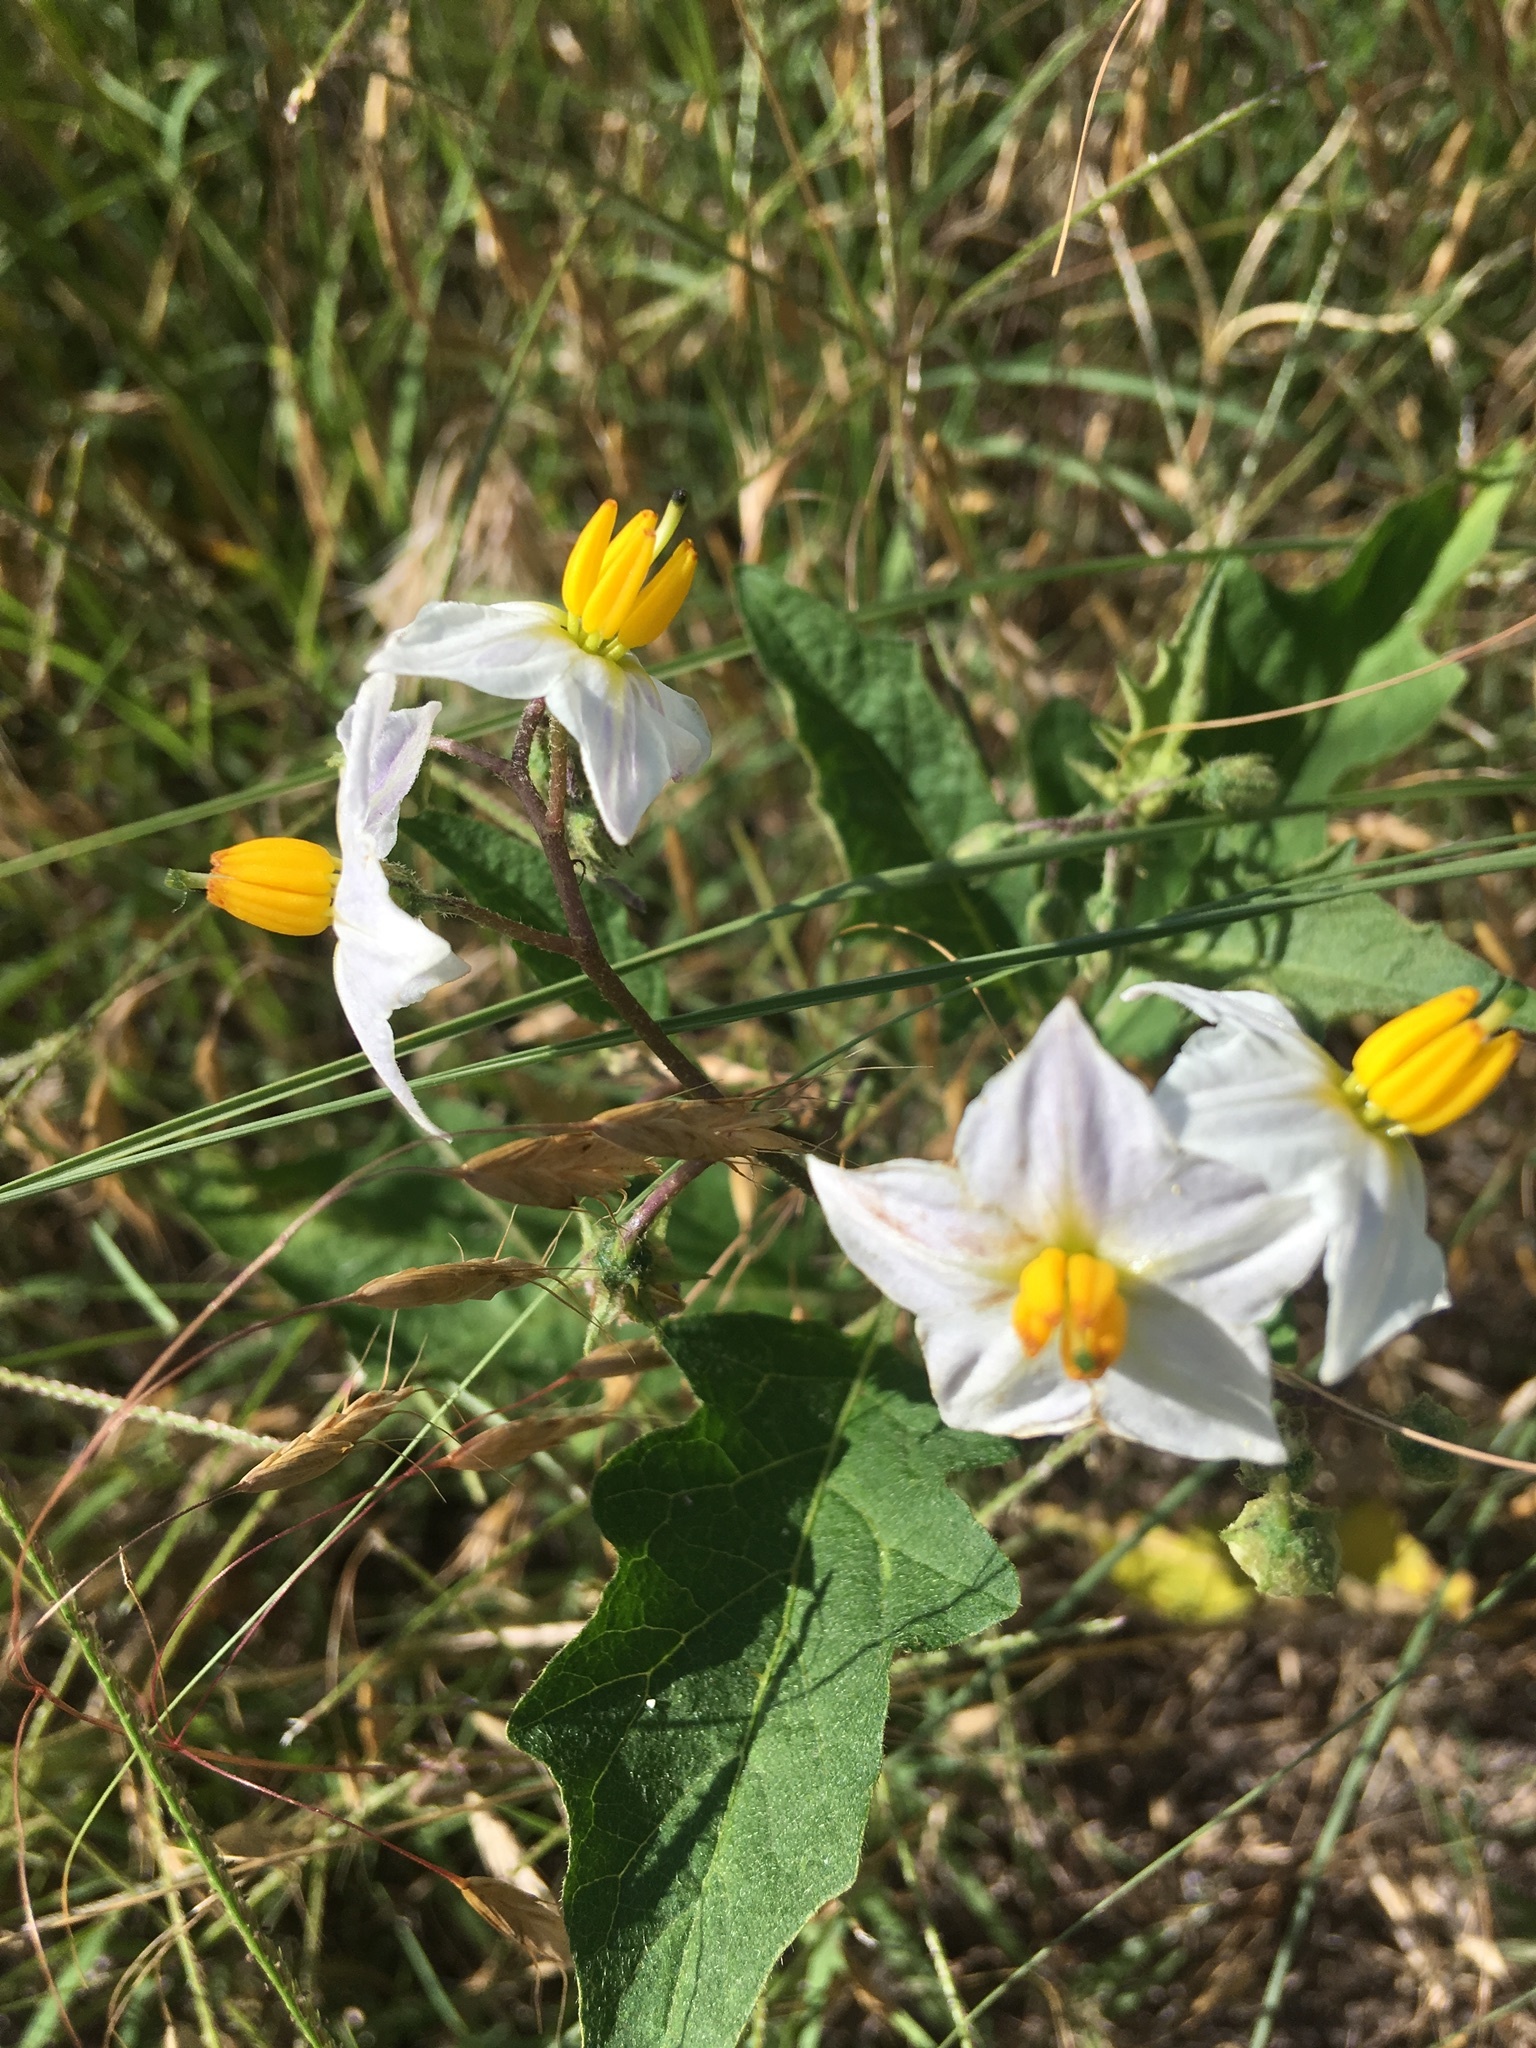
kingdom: Plantae
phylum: Tracheophyta
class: Magnoliopsida
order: Solanales
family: Solanaceae
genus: Solanum
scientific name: Solanum carolinense
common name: Horse-nettle
